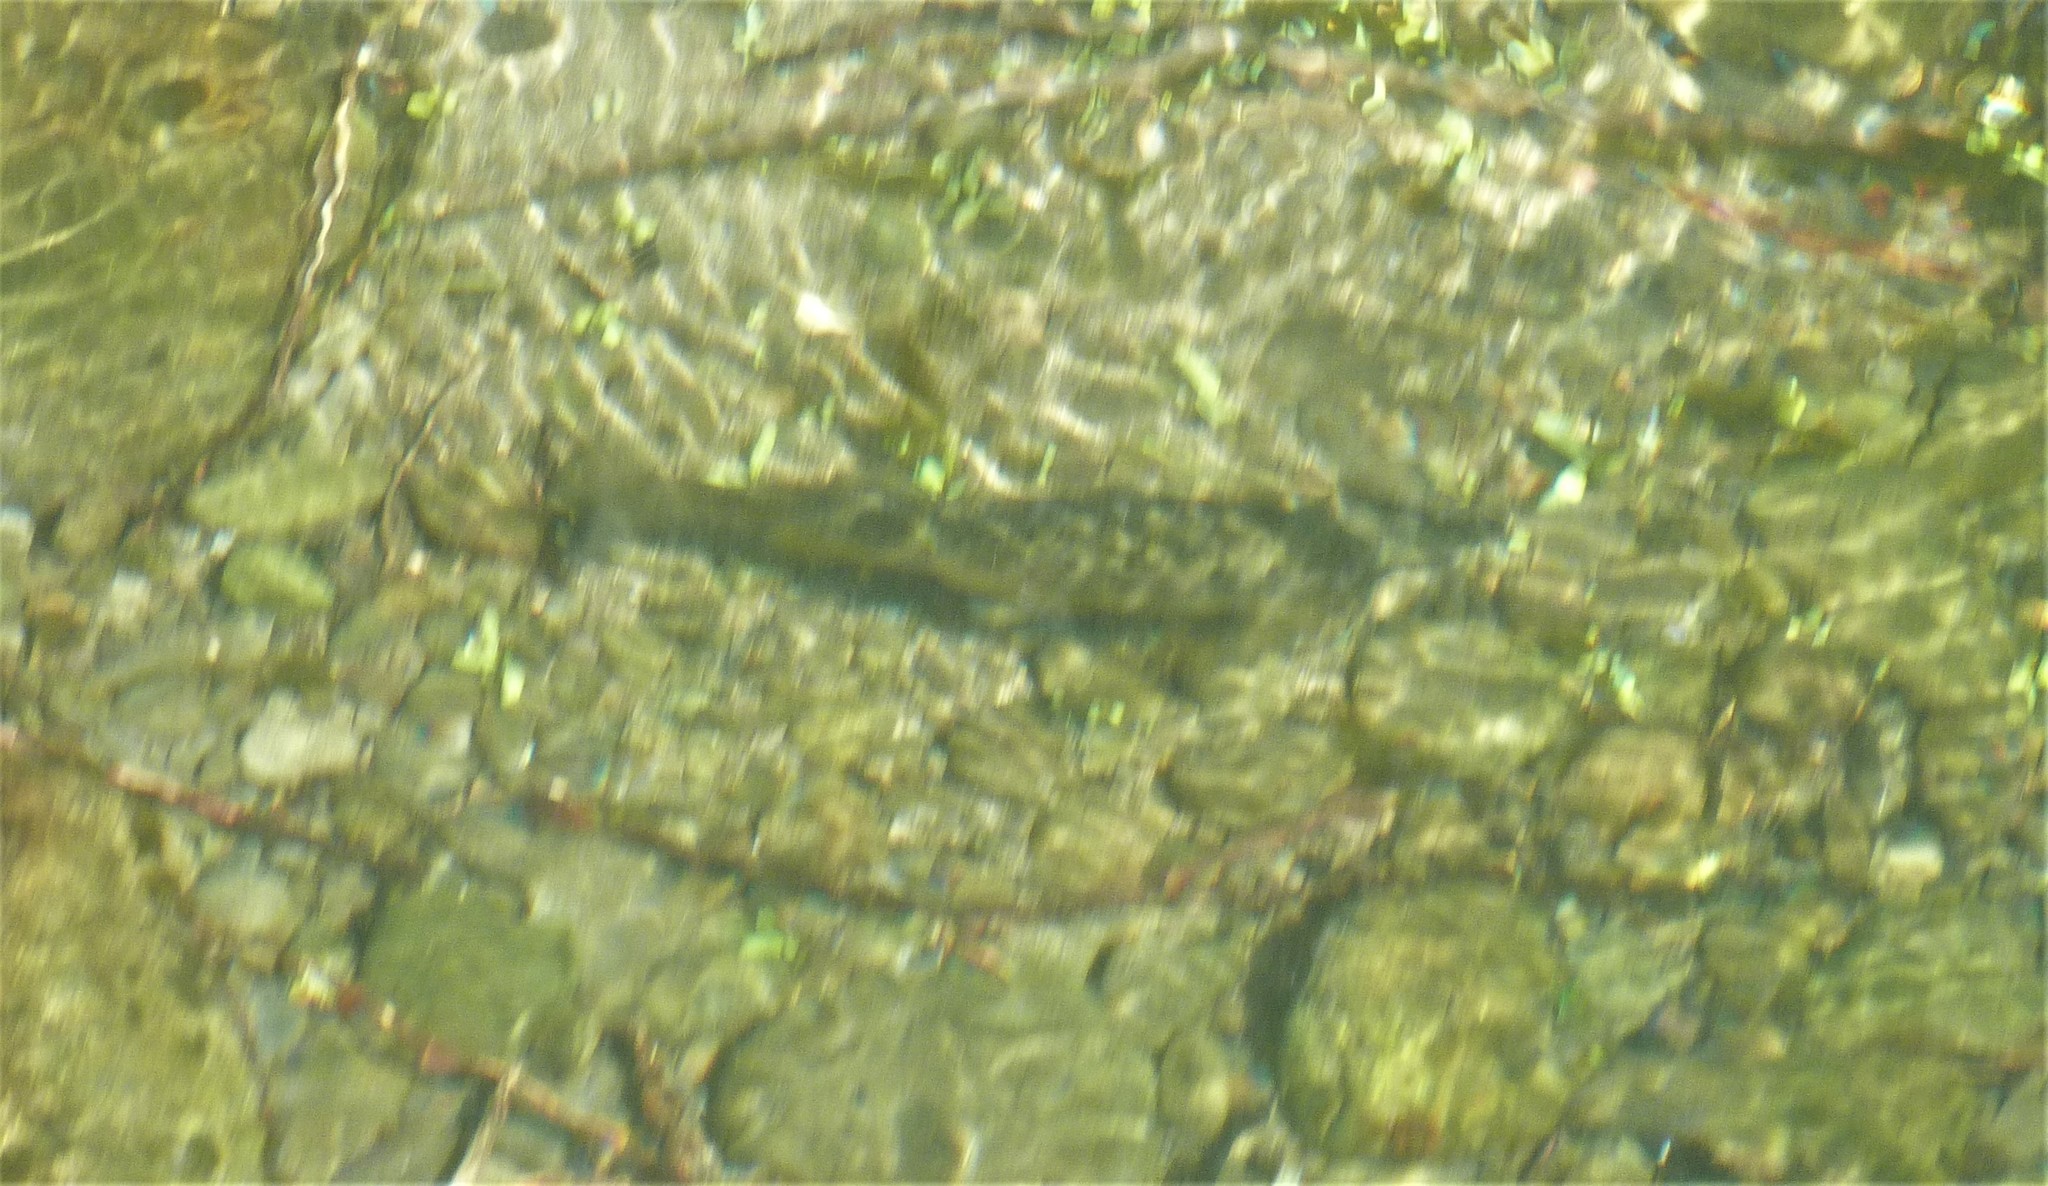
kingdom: Animalia
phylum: Chordata
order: Salmoniformes
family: Salmonidae
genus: Salmo
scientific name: Salmo trutta
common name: Brown trout
